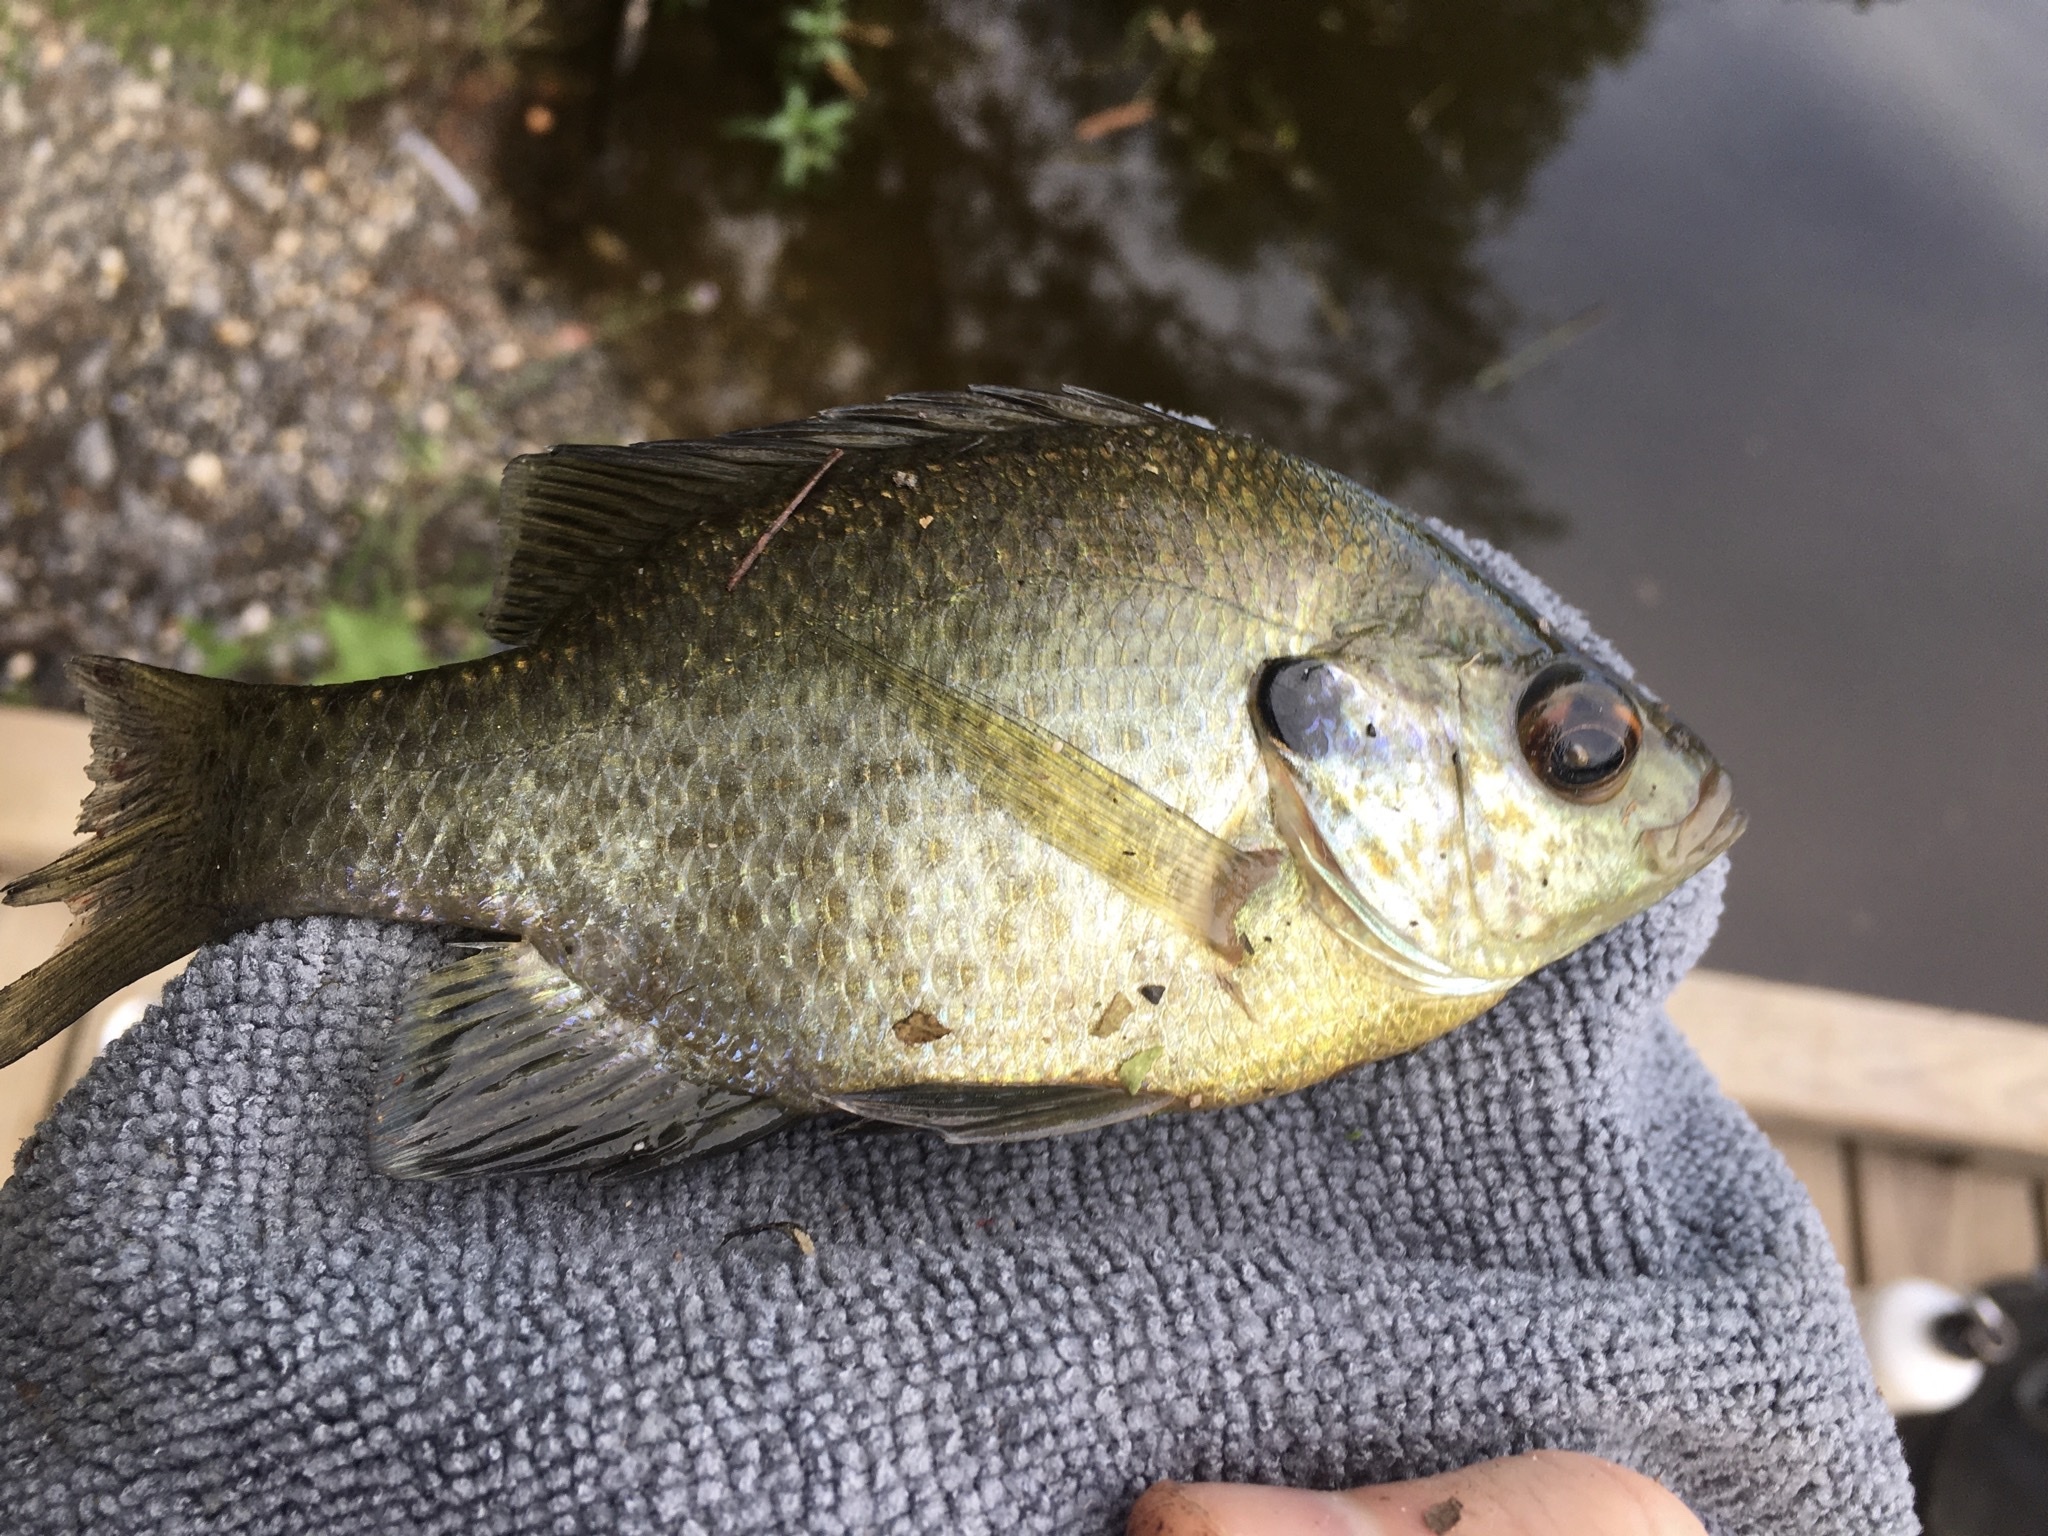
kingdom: Animalia
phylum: Chordata
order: Perciformes
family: Centrarchidae
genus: Lepomis
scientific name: Lepomis
